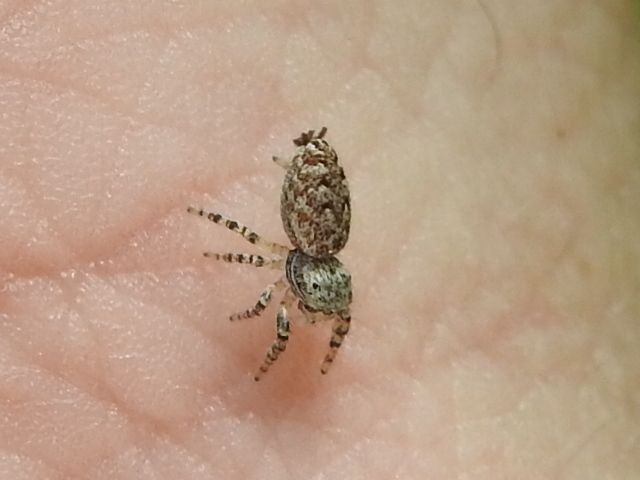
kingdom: Animalia
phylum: Arthropoda
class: Arachnida
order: Araneae
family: Salticidae
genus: Pelegrina
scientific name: Pelegrina galathea
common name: Jumping spiders
